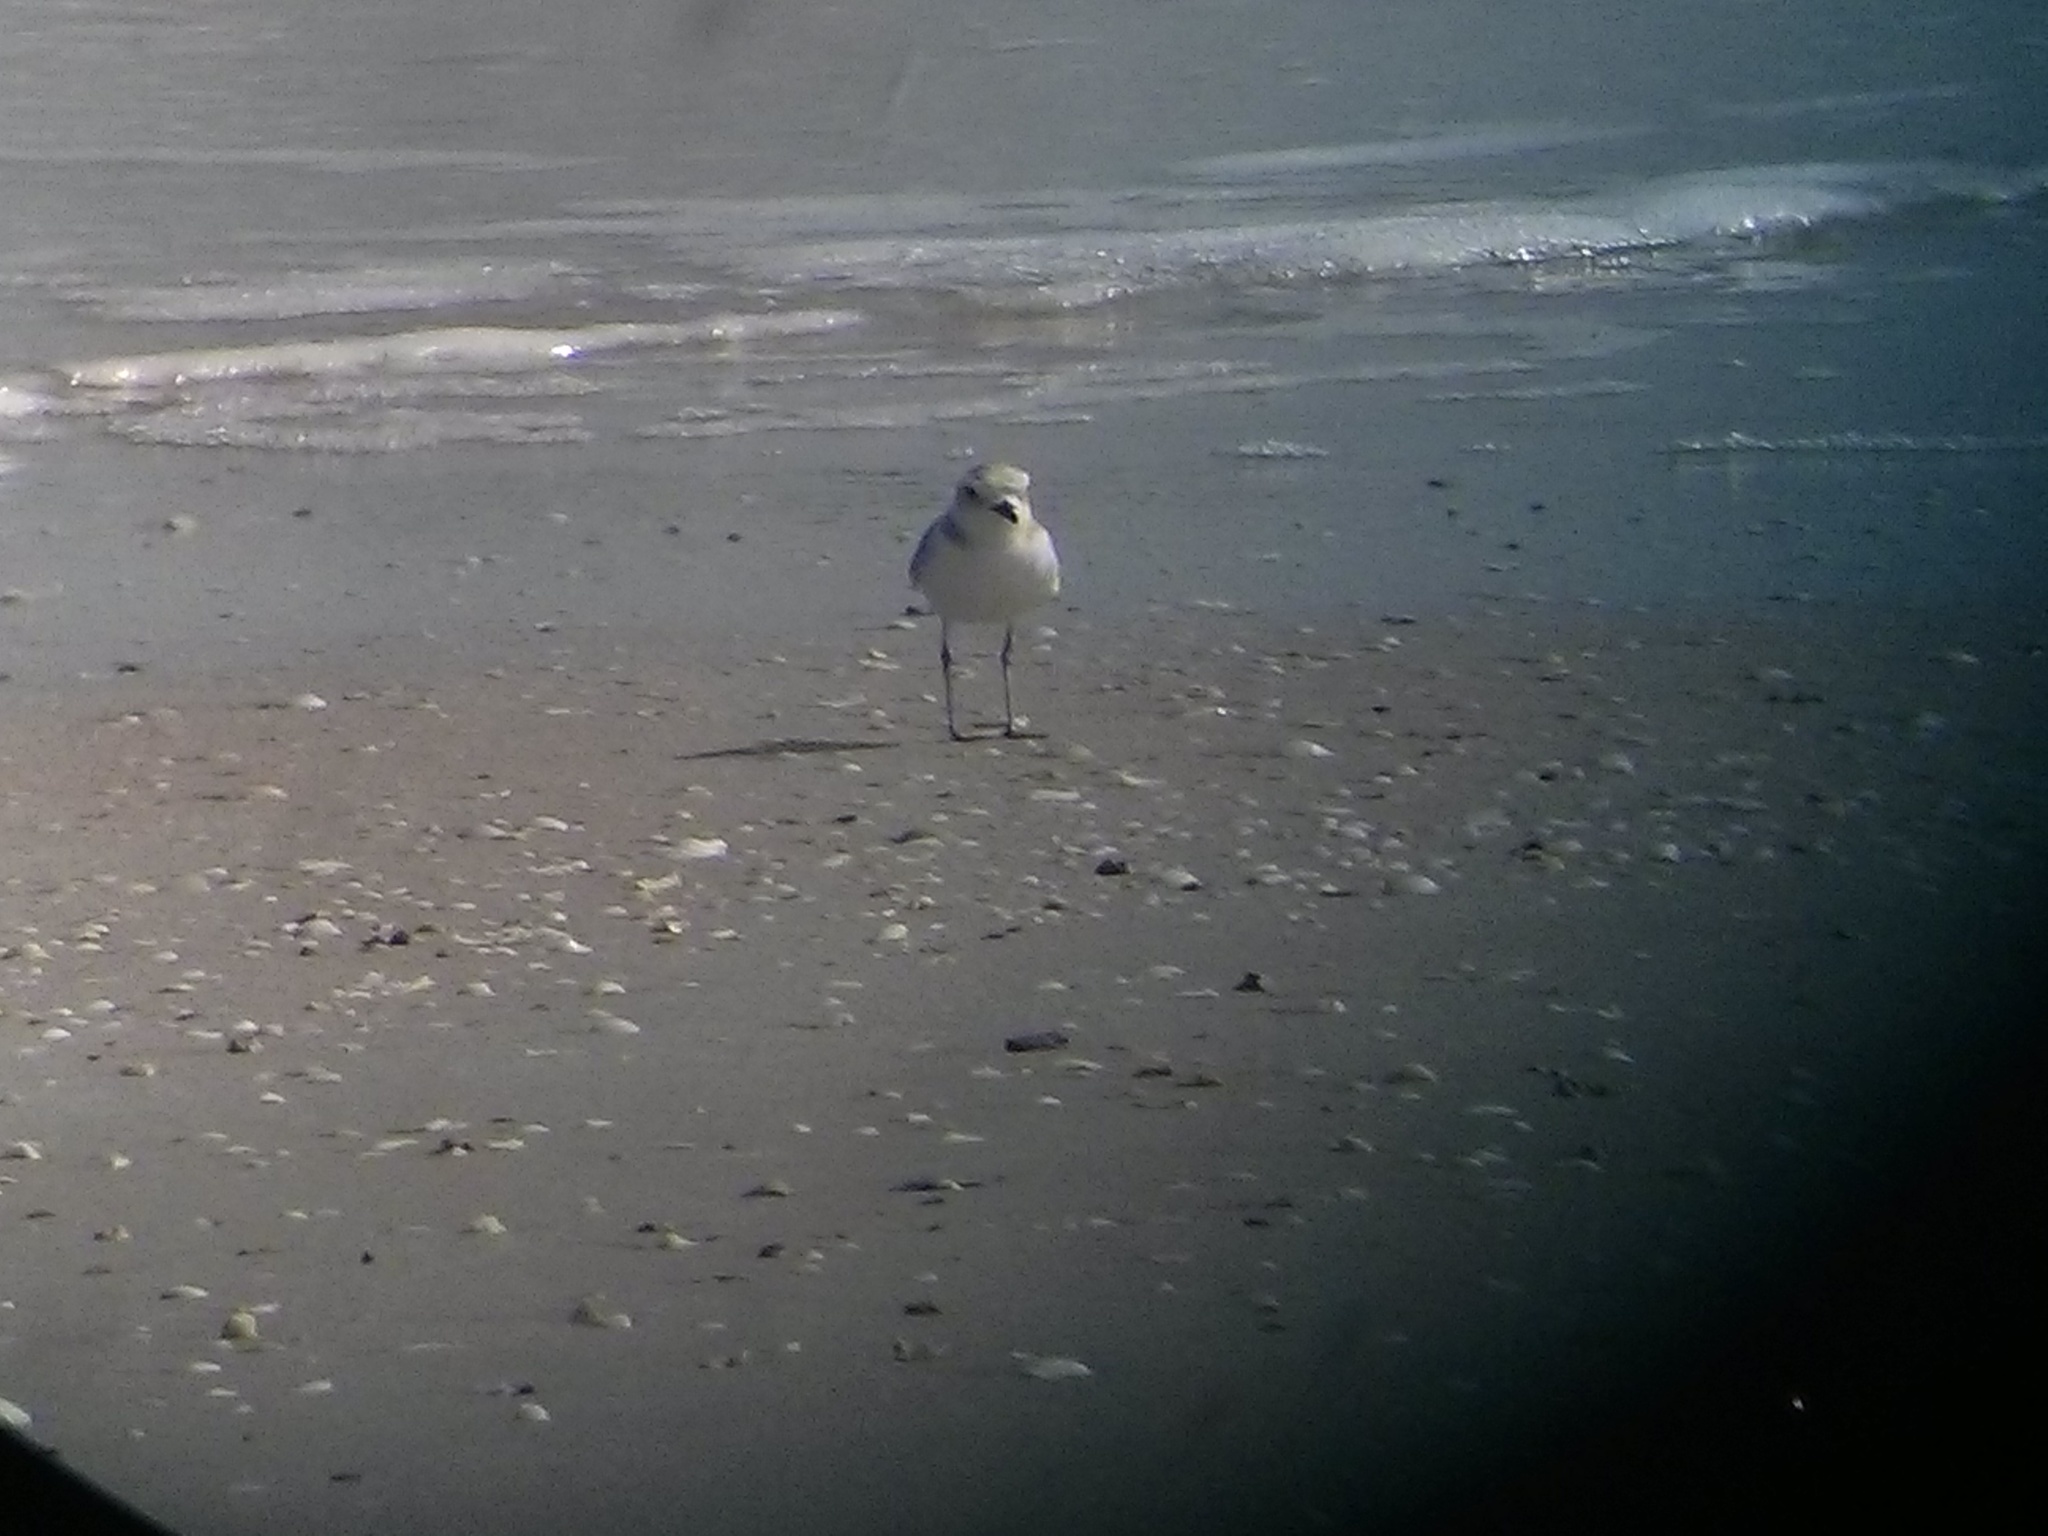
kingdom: Animalia
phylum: Chordata
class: Aves
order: Charadriiformes
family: Charadriidae
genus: Anarhynchus
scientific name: Anarhynchus
